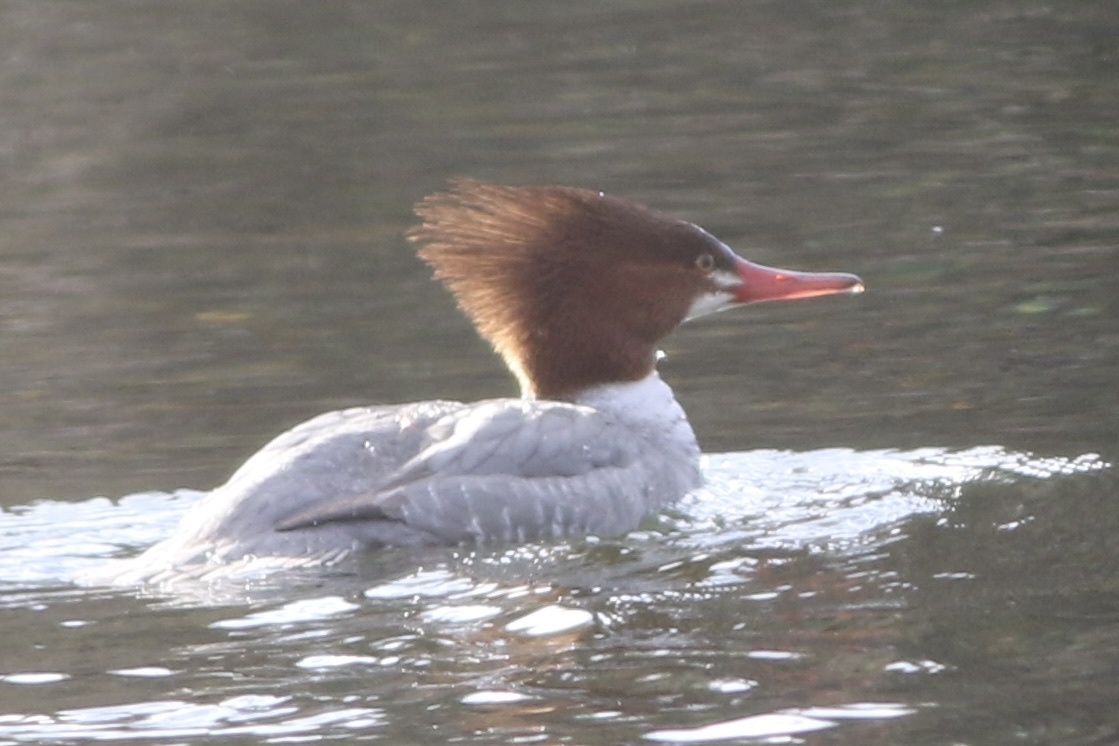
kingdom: Animalia
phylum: Chordata
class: Aves
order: Anseriformes
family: Anatidae
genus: Mergus
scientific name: Mergus merganser
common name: Common merganser
